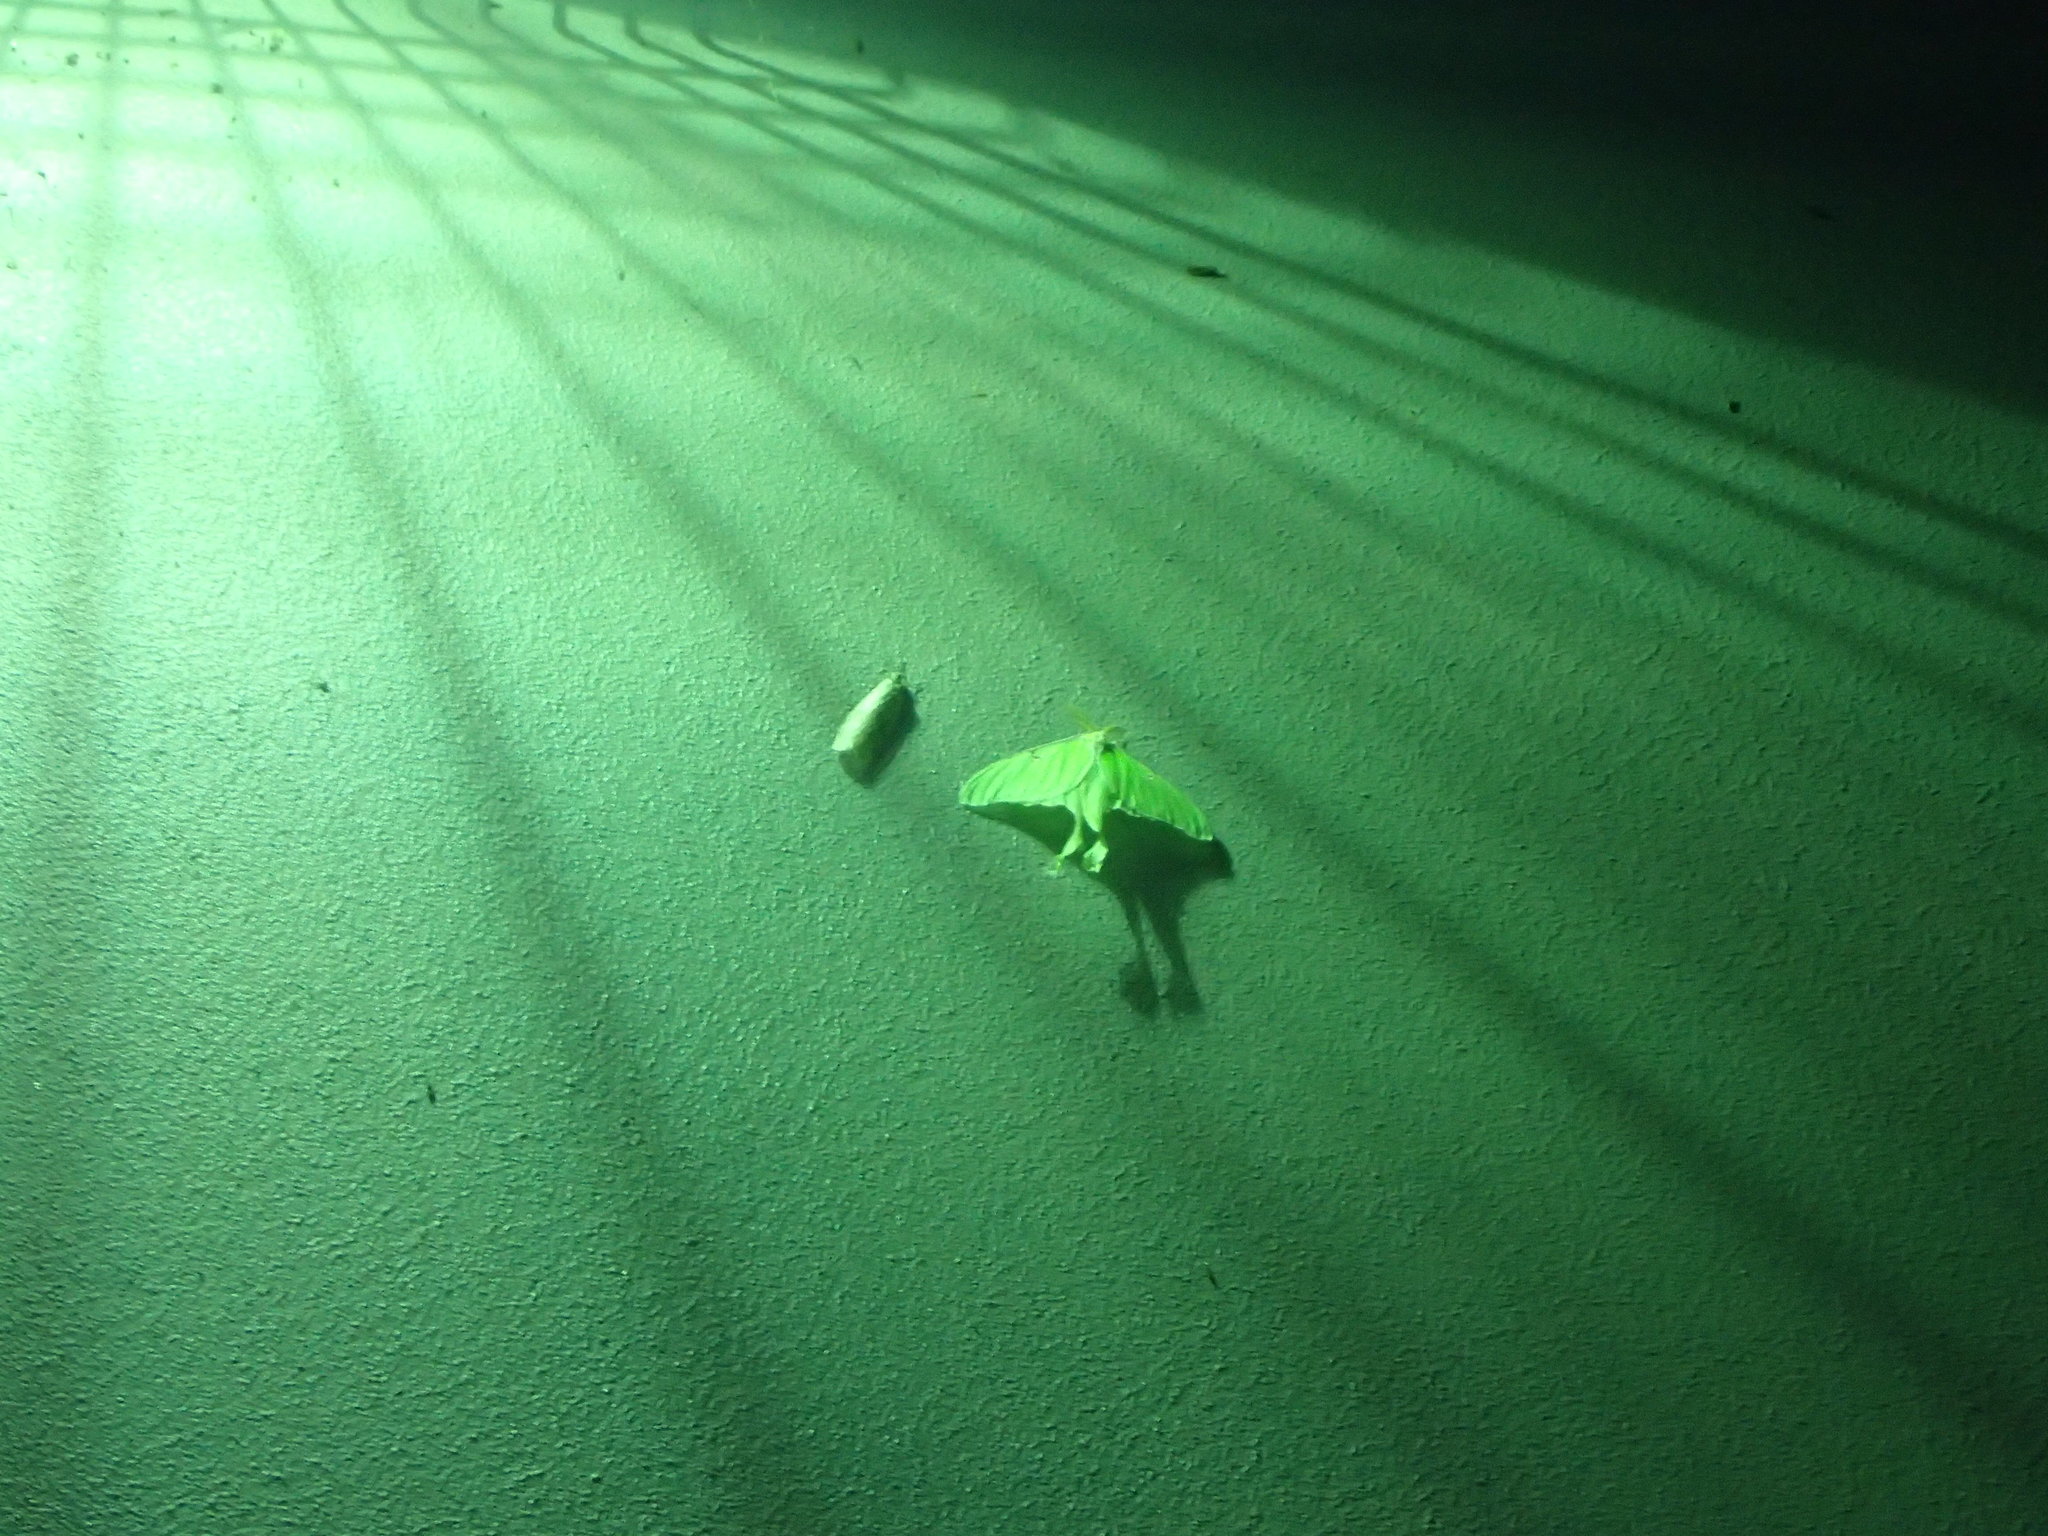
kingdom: Animalia
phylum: Arthropoda
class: Insecta
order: Lepidoptera
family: Saturniidae
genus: Actias
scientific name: Actias luna
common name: Luna moth
